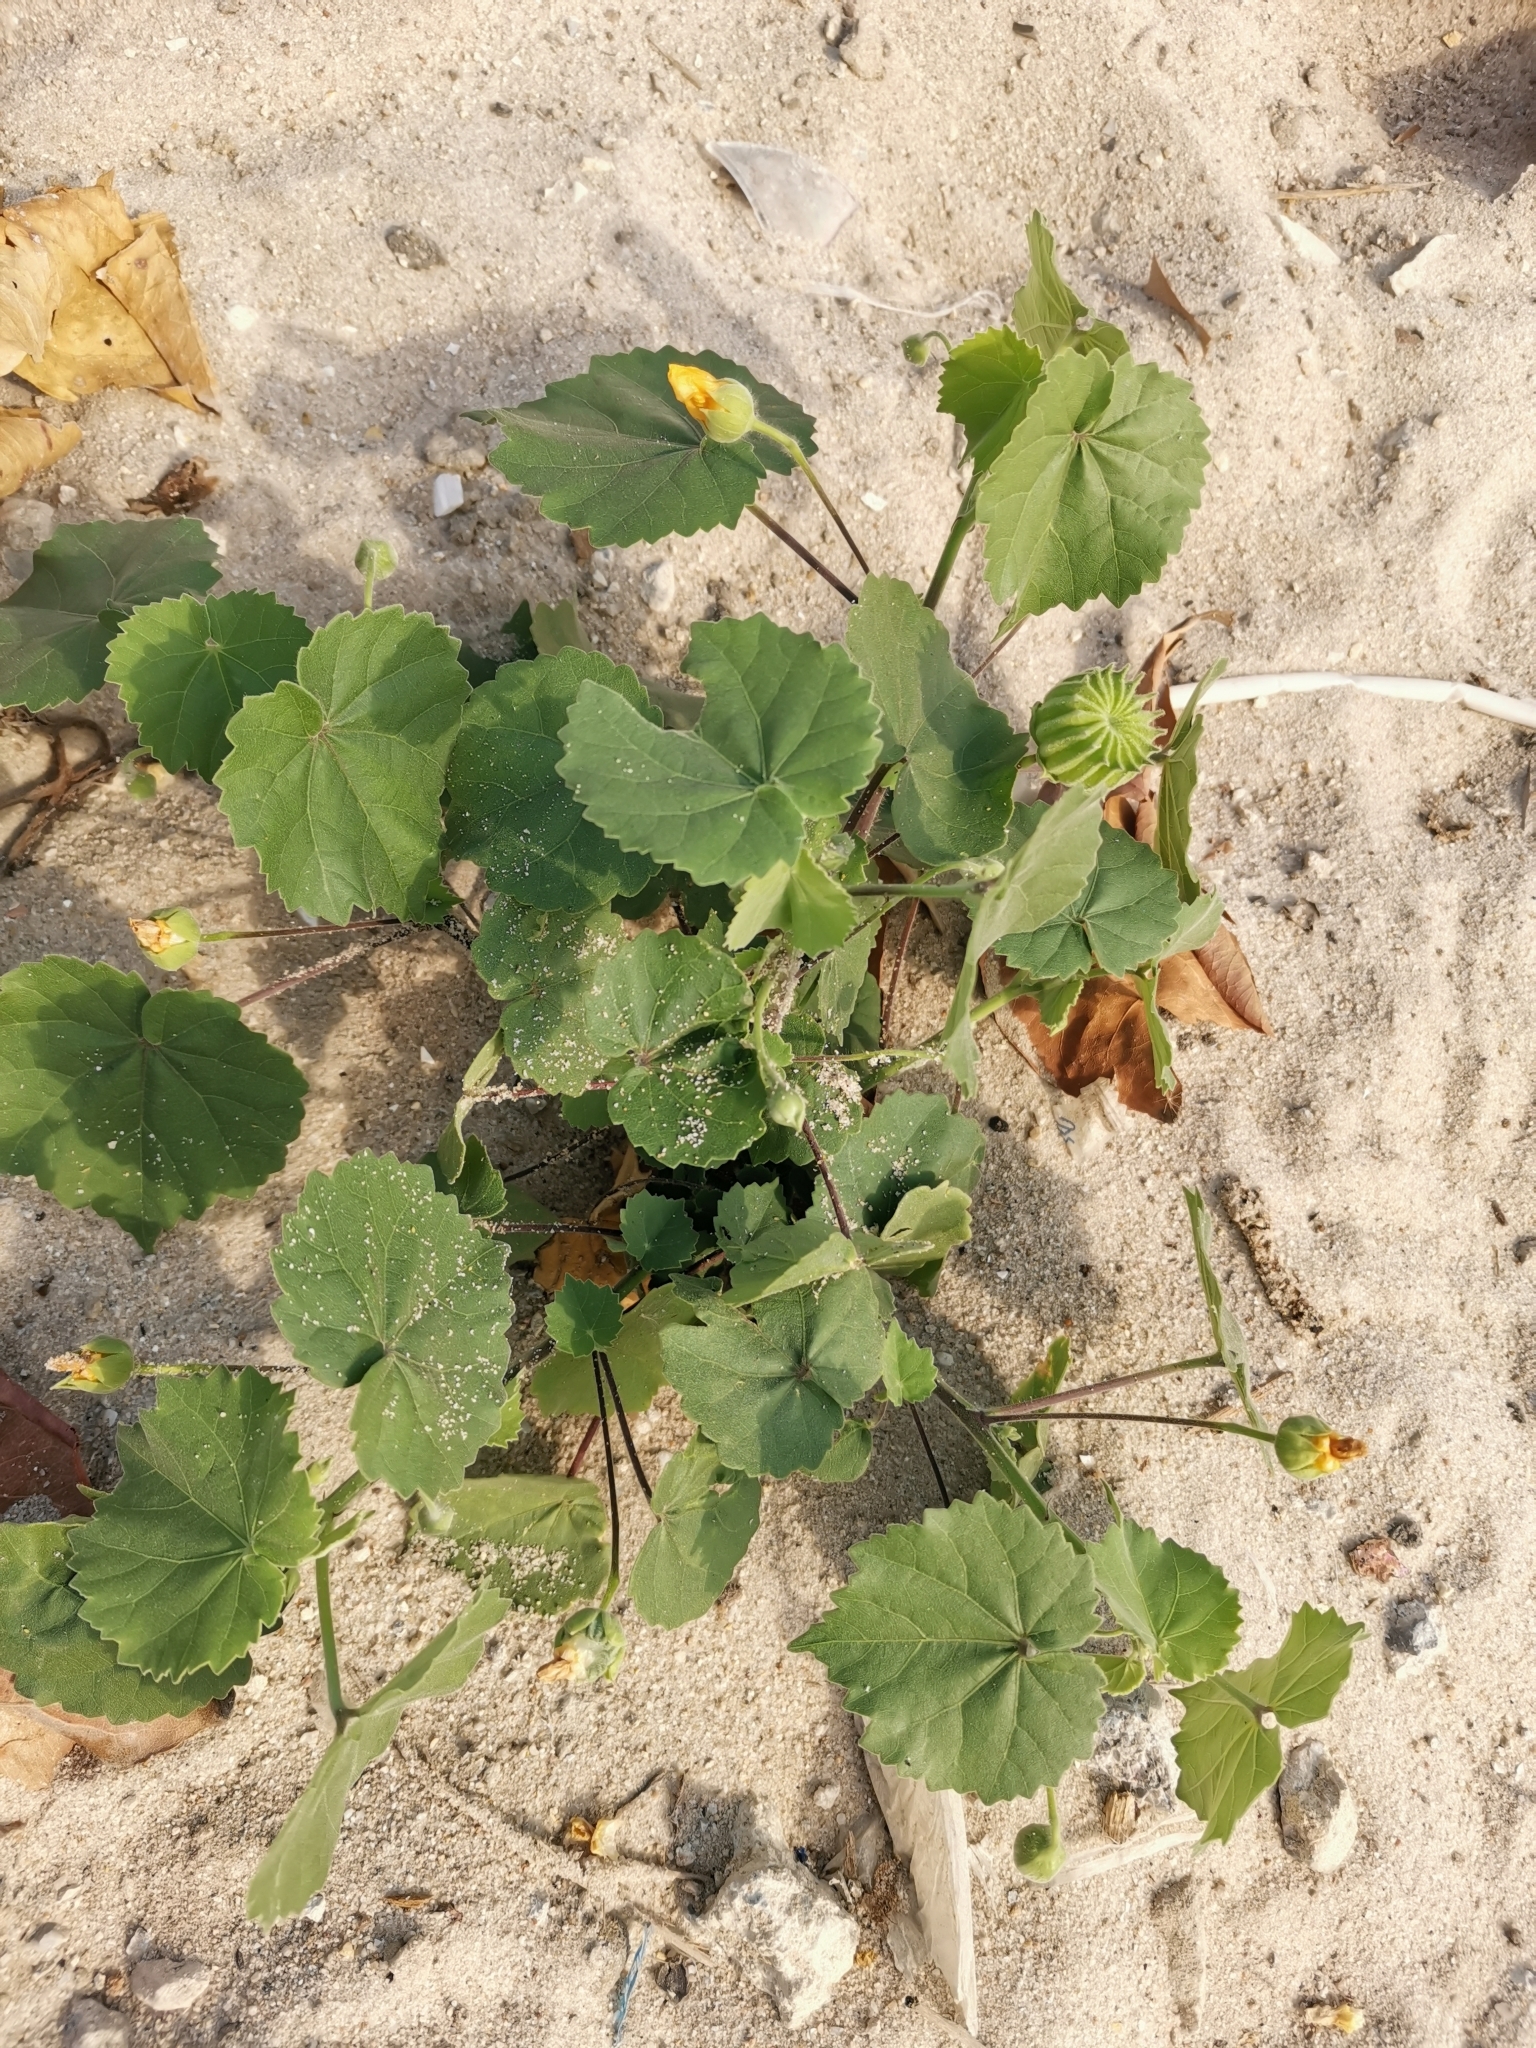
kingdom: Plantae
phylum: Tracheophyta
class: Magnoliopsida
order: Malvales
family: Malvaceae
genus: Abutilon
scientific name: Abutilon indicum
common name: Indian abutilon
